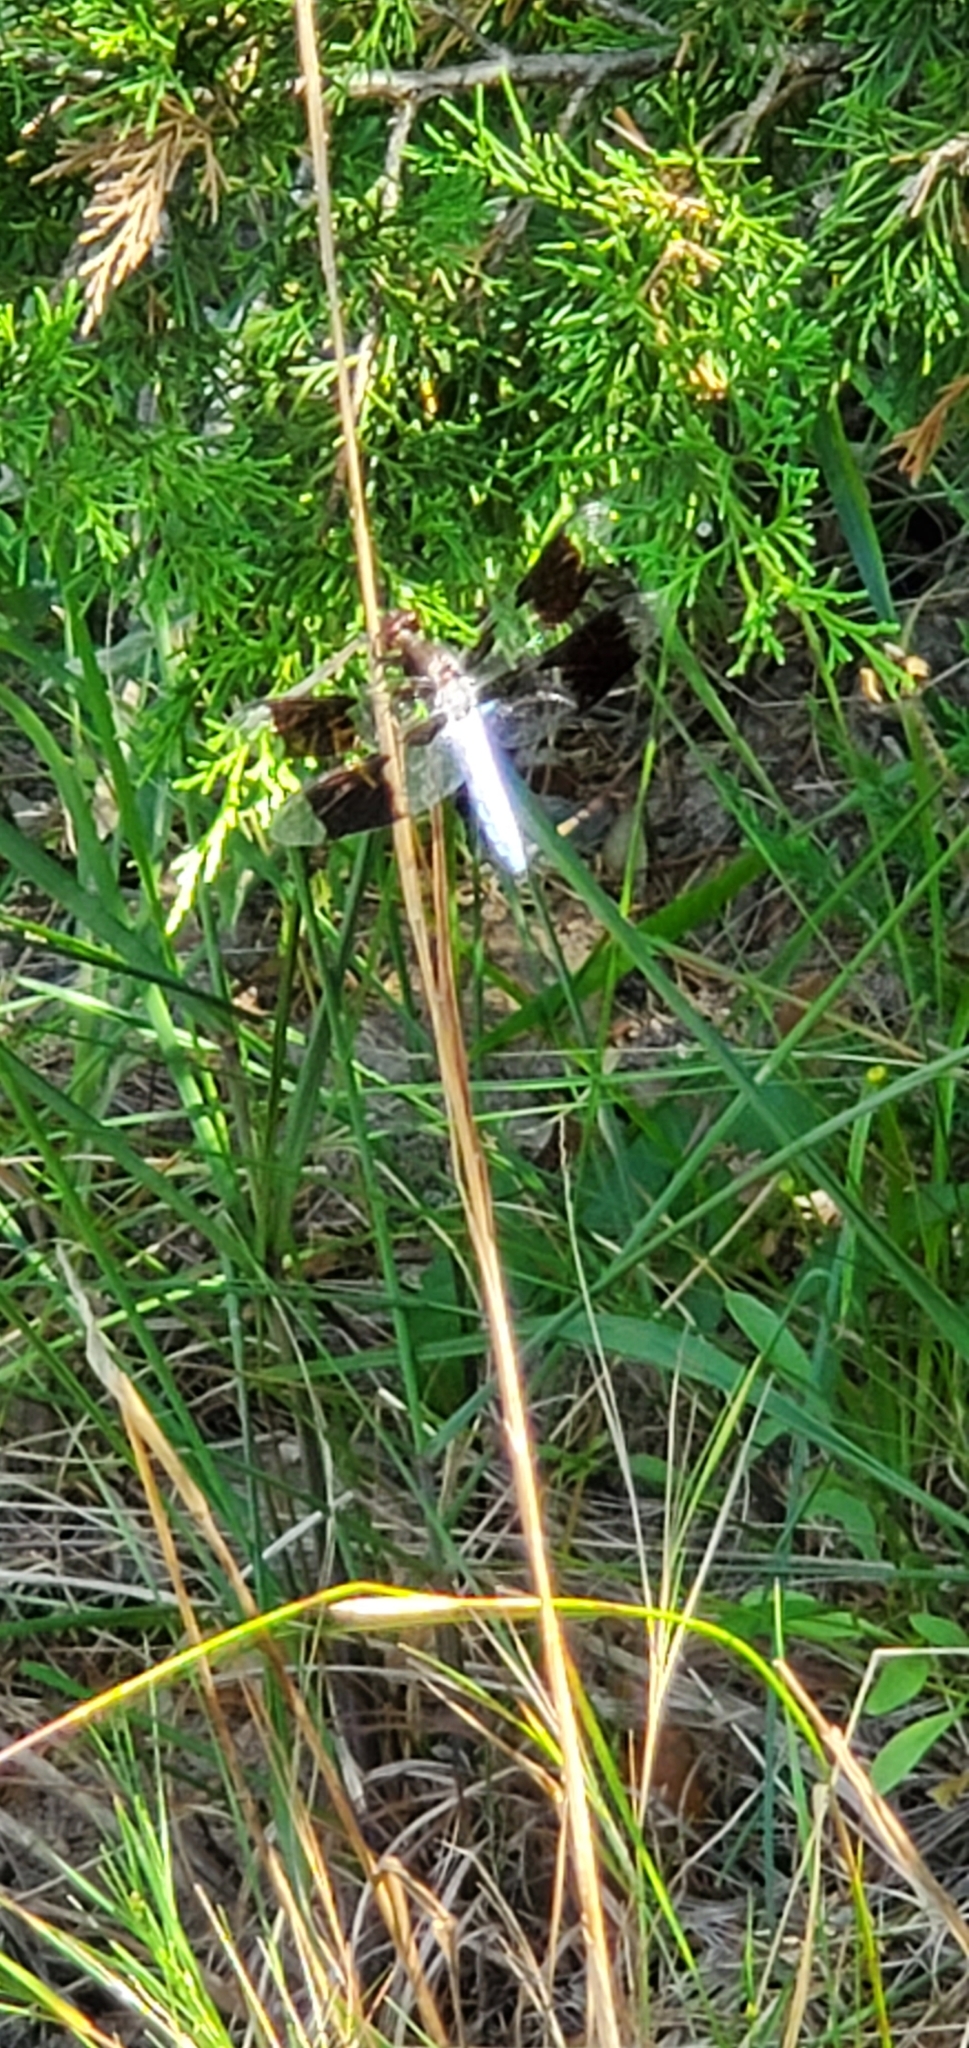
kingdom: Animalia
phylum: Arthropoda
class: Insecta
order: Odonata
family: Libellulidae
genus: Plathemis
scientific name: Plathemis lydia
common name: Common whitetail
